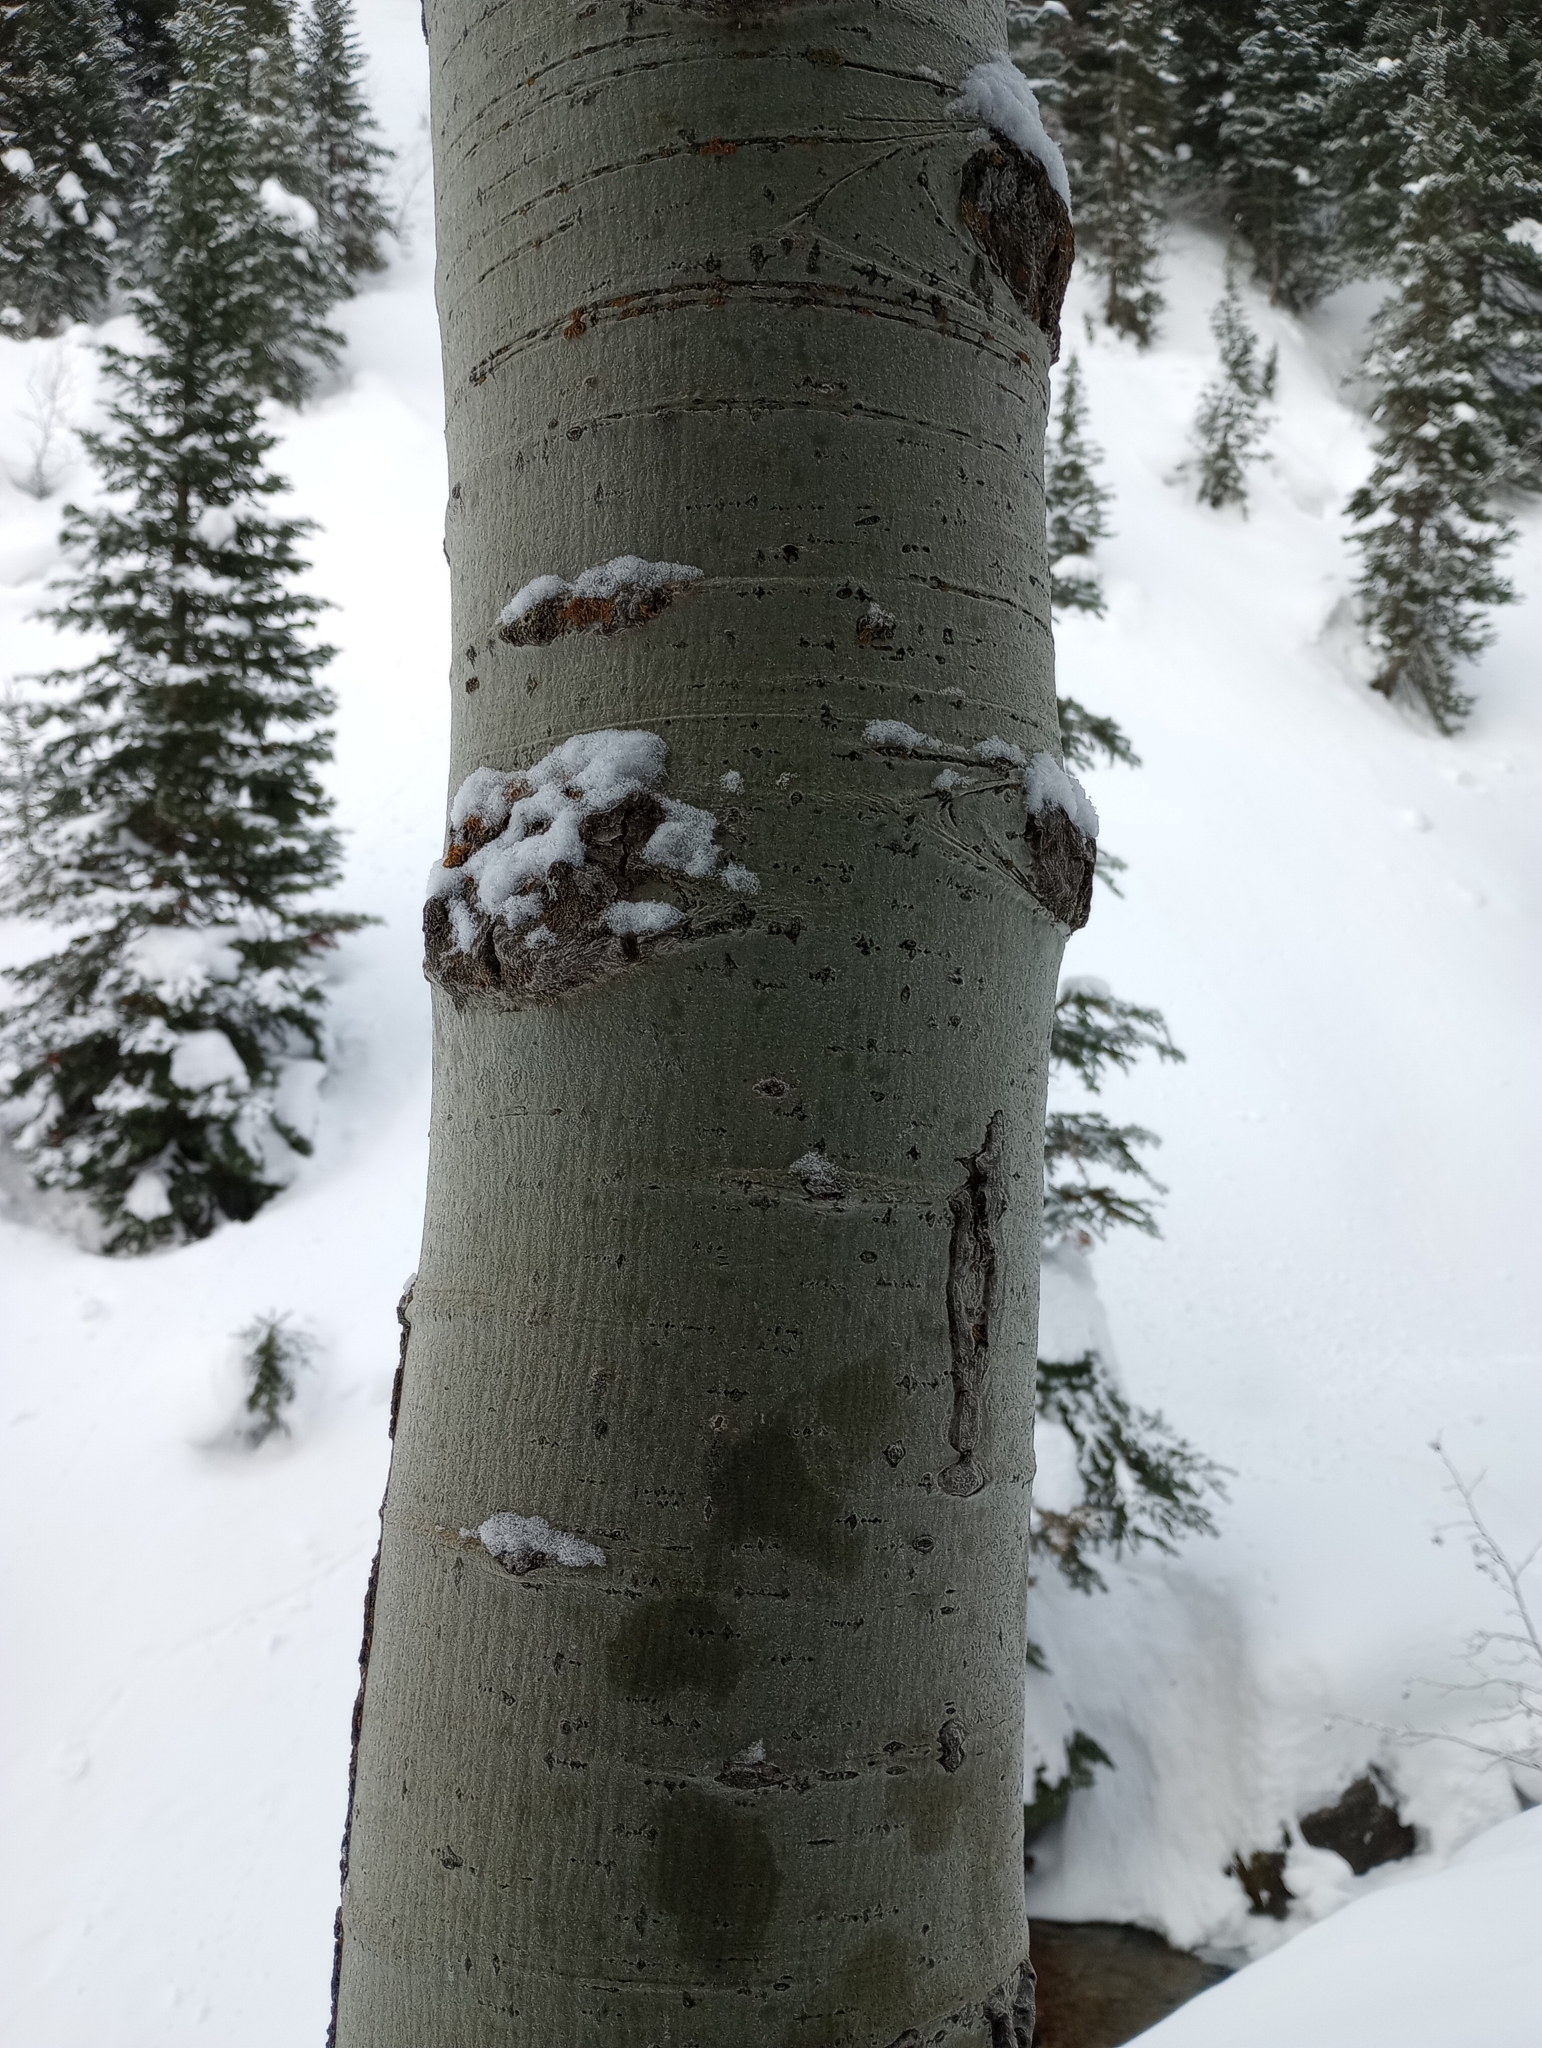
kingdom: Plantae
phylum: Tracheophyta
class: Magnoliopsida
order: Malpighiales
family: Salicaceae
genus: Populus
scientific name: Populus tremuloides
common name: Quaking aspen
